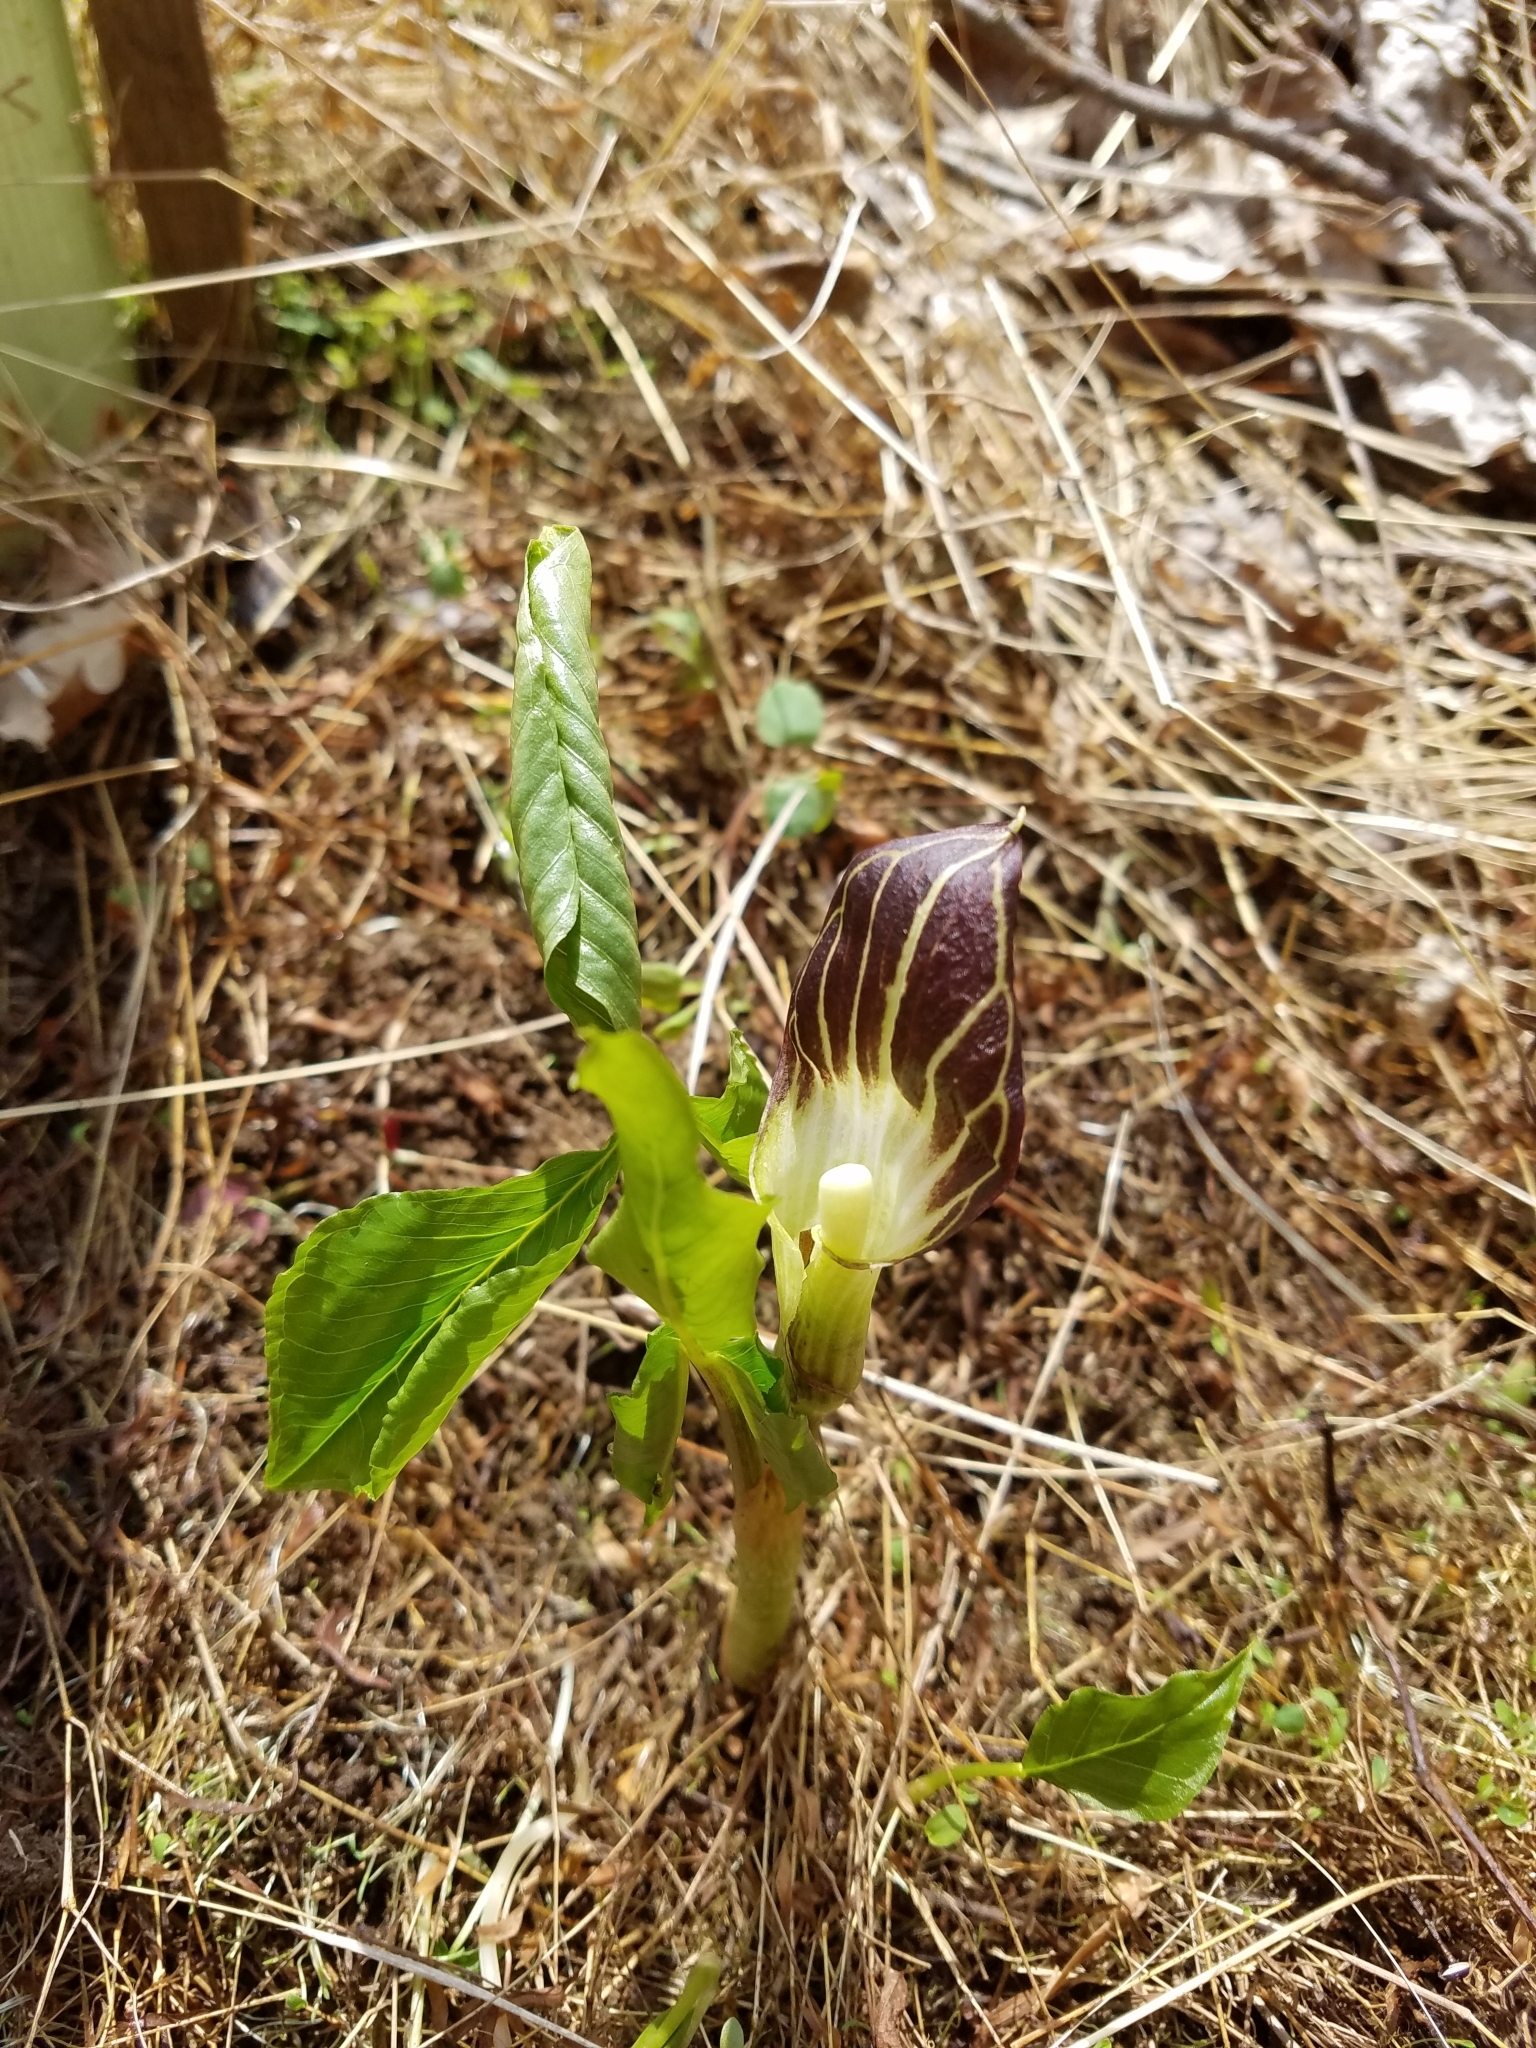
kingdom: Plantae
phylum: Tracheophyta
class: Liliopsida
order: Alismatales
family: Araceae
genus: Arisaema
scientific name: Arisaema triphyllum
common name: Jack-in-the-pulpit
